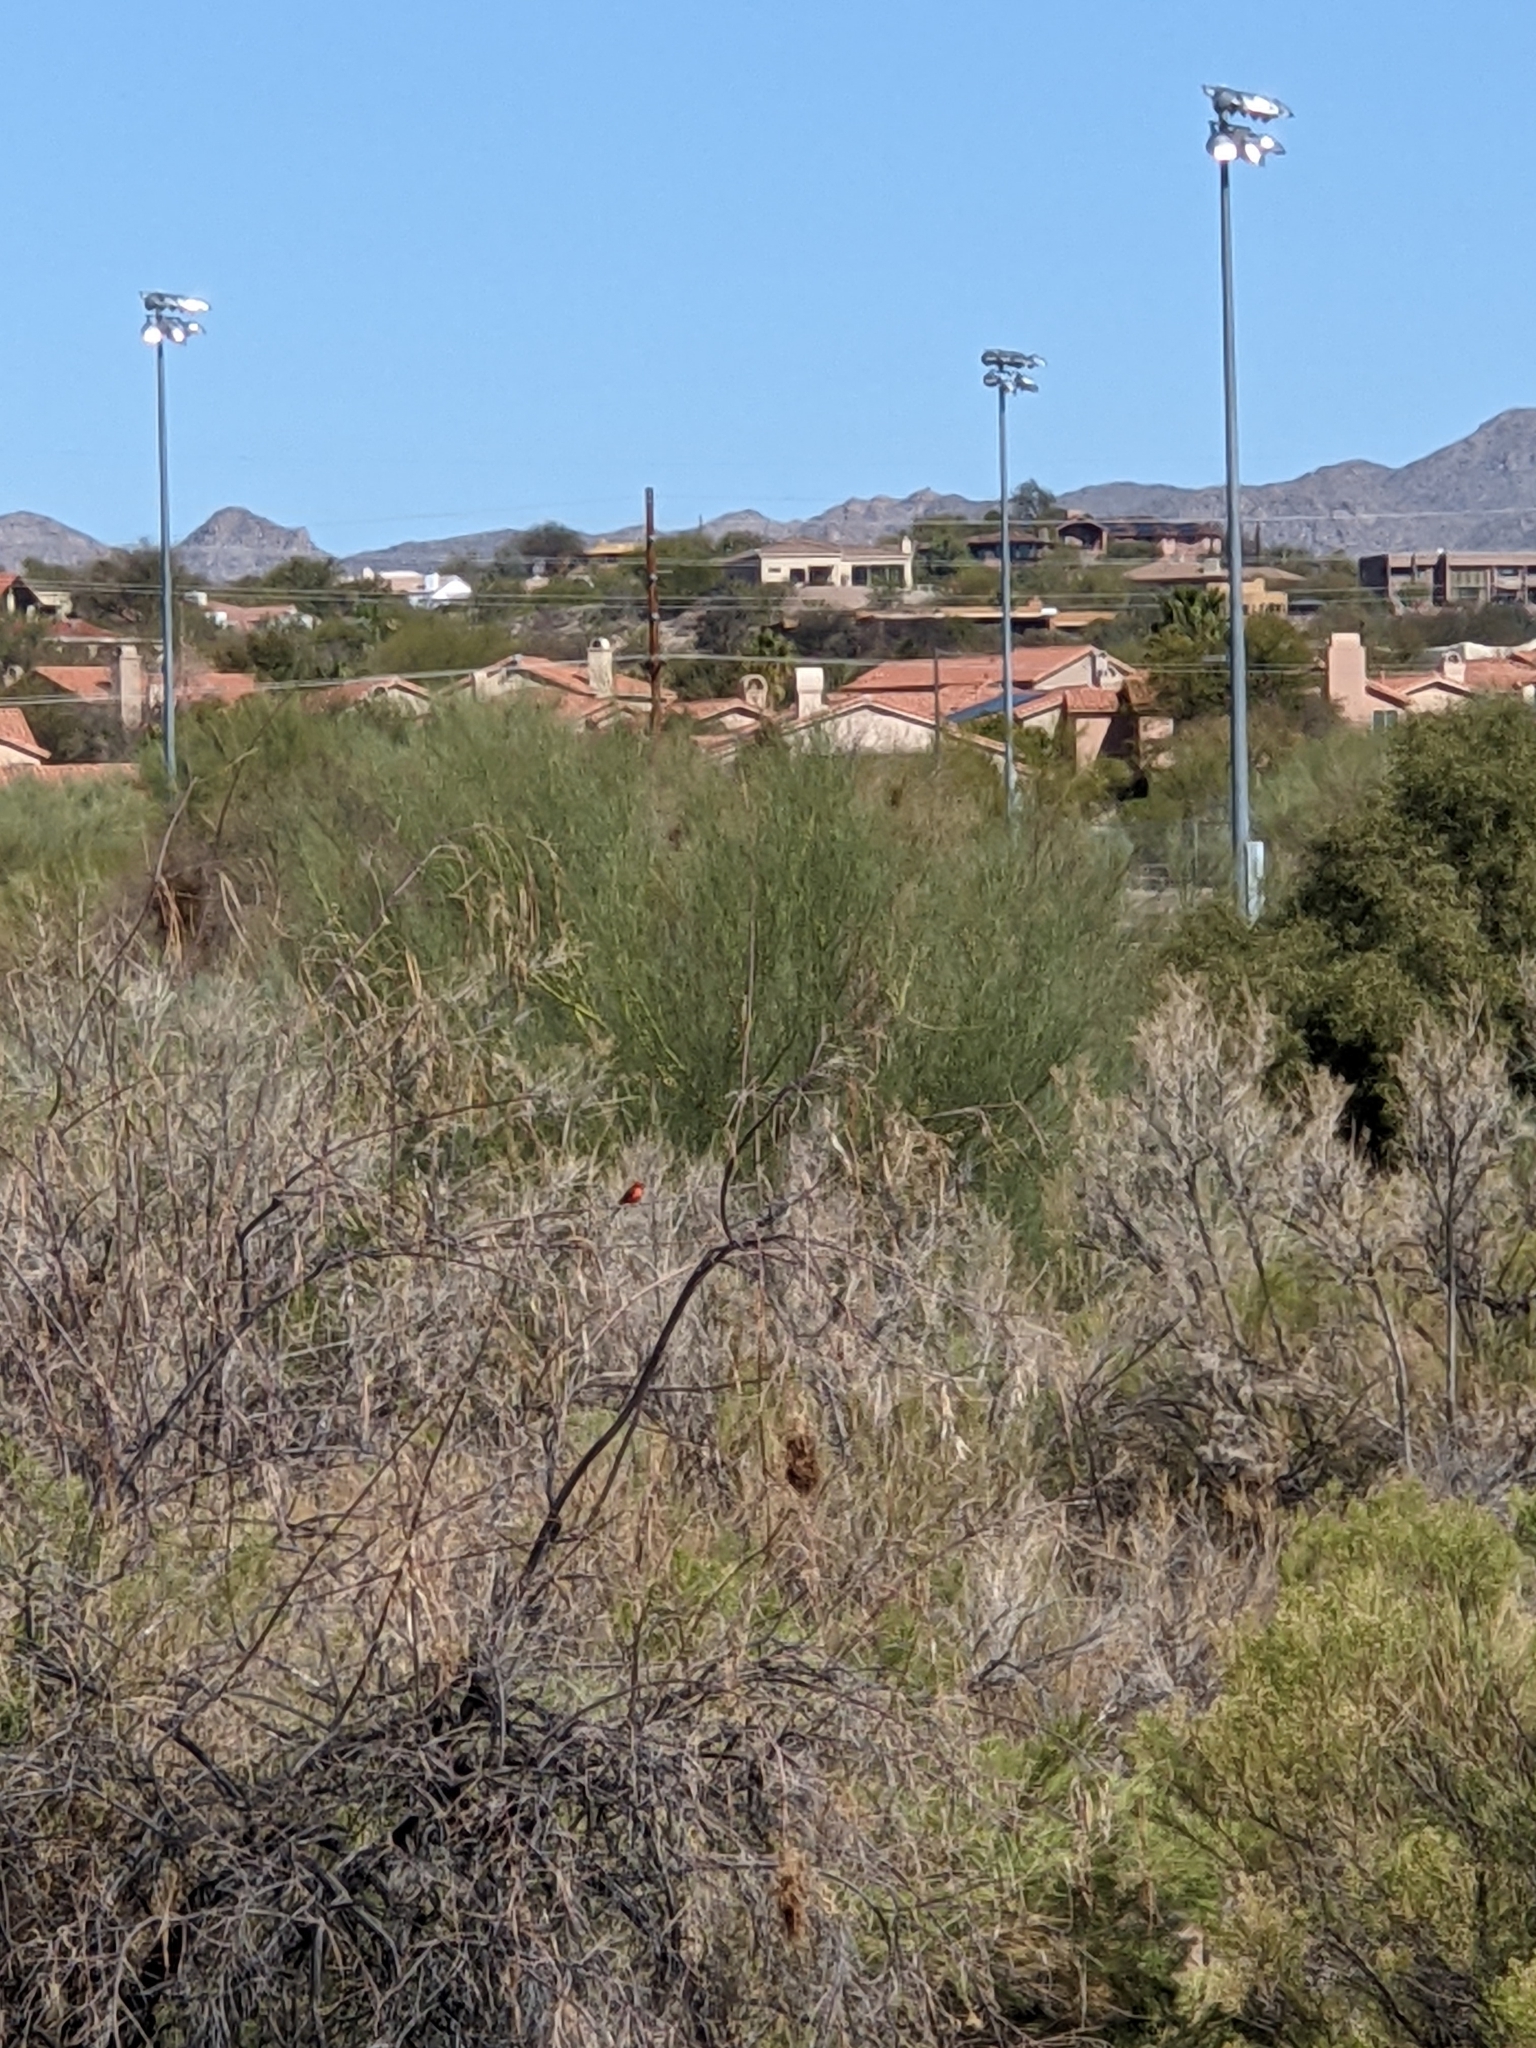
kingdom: Animalia
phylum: Chordata
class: Aves
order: Passeriformes
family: Tyrannidae
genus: Pyrocephalus
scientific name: Pyrocephalus rubinus
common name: Vermilion flycatcher
